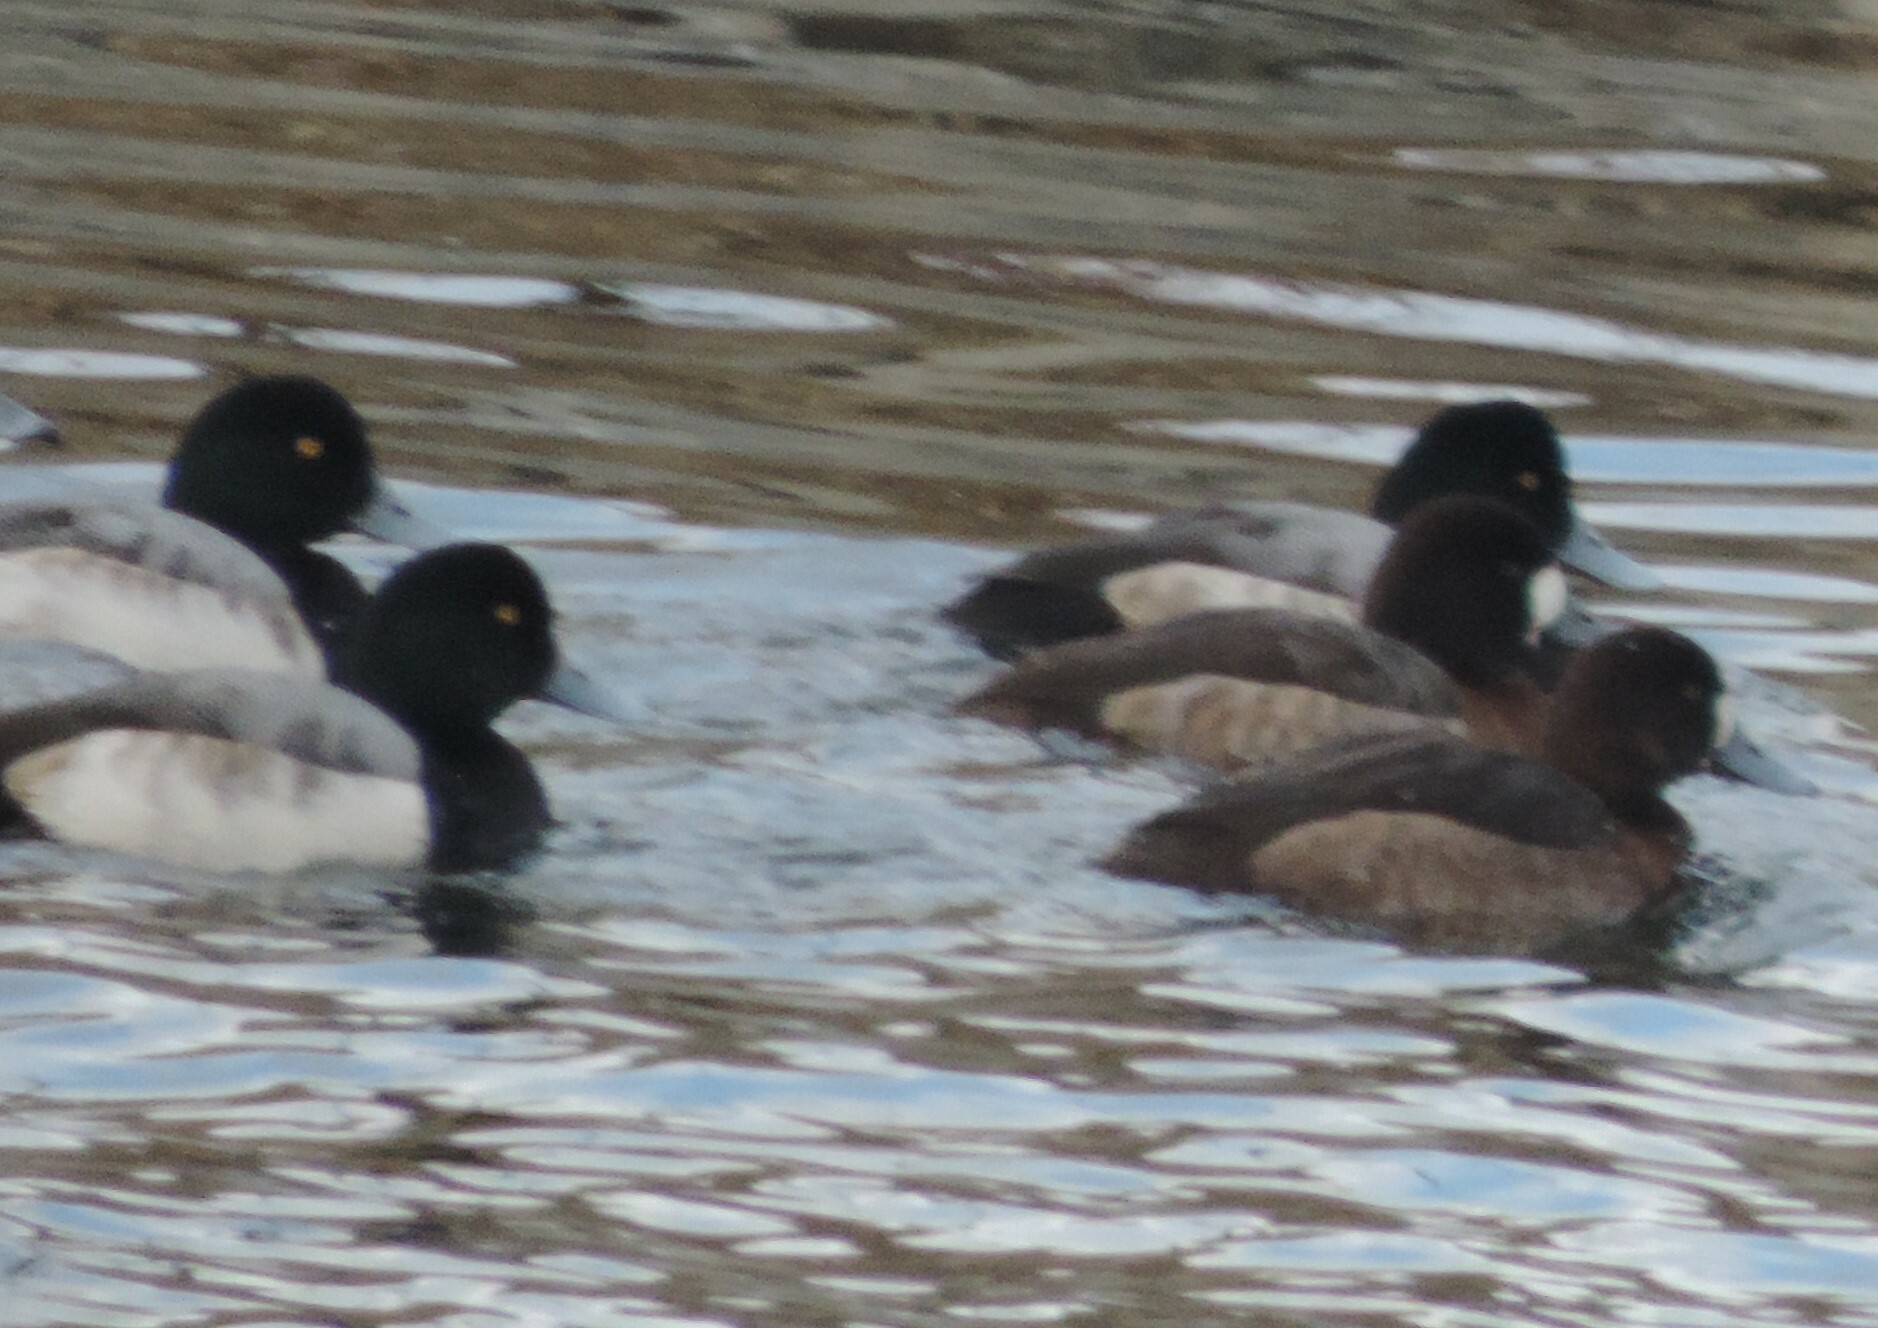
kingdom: Animalia
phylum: Chordata
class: Aves
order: Anseriformes
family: Anatidae
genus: Aythya
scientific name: Aythya marila
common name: Greater scaup
